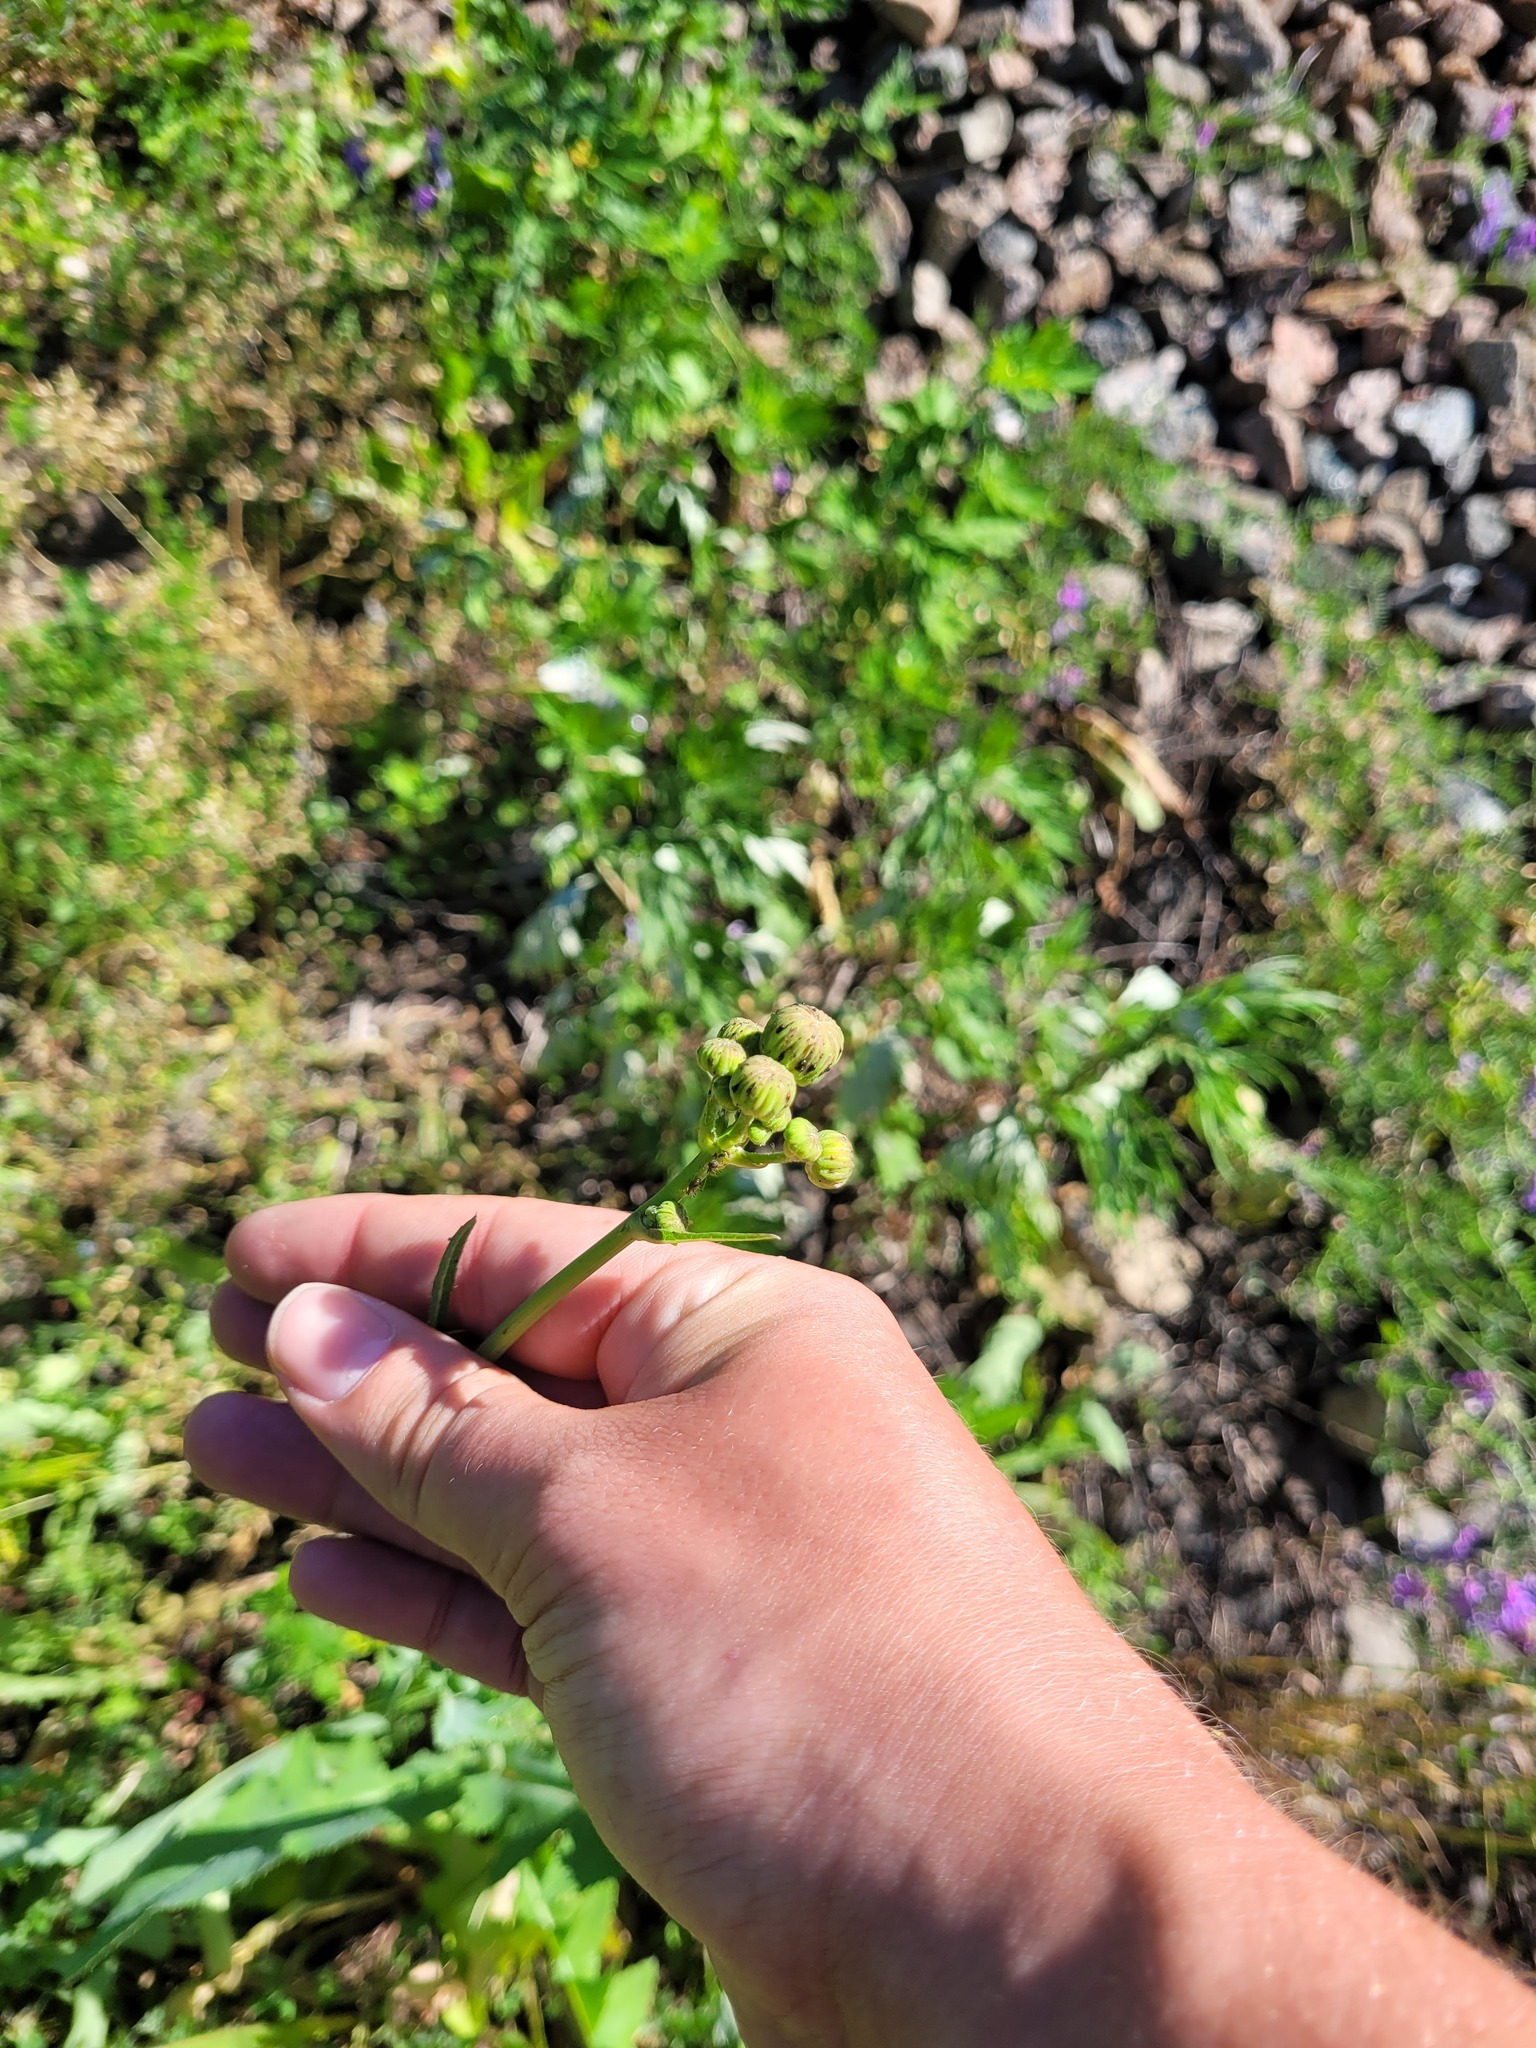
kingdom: Plantae
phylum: Tracheophyta
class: Magnoliopsida
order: Asterales
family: Asteraceae
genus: Sonchus
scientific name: Sonchus arvensis
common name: Perennial sow-thistle
